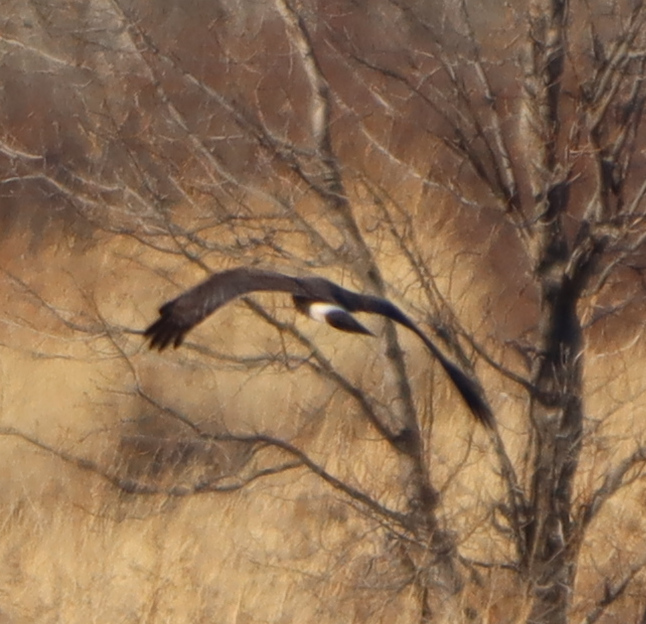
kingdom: Animalia
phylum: Chordata
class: Aves
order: Accipitriformes
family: Accipitridae
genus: Circus
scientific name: Circus cyaneus
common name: Hen harrier
